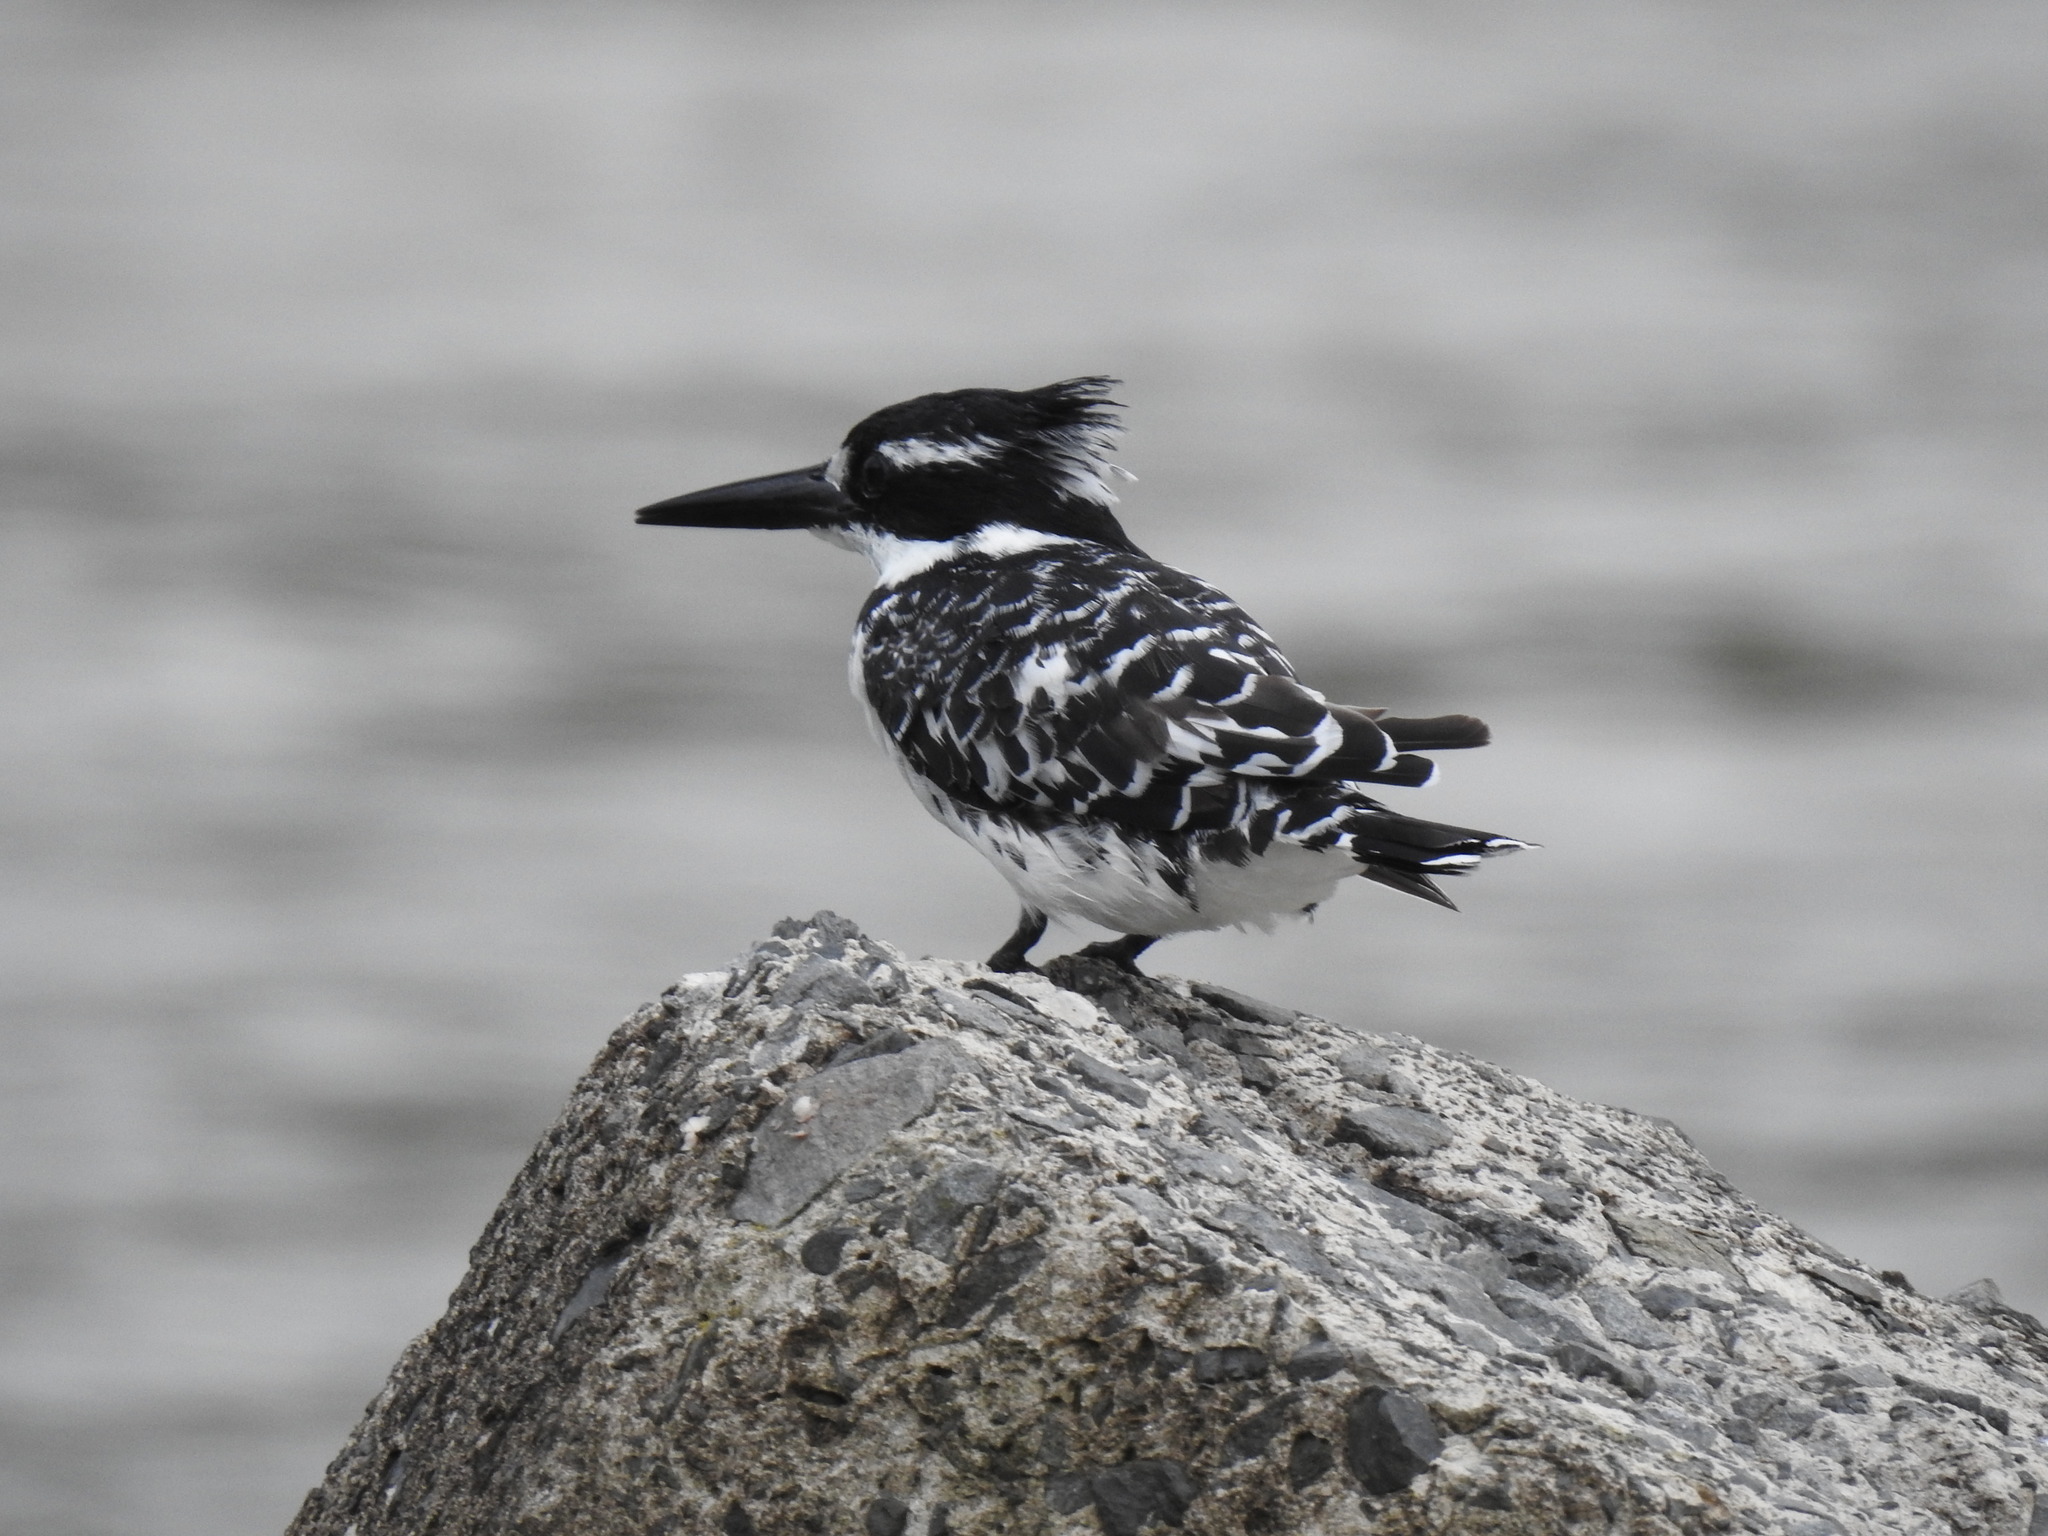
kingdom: Animalia
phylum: Chordata
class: Aves
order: Coraciiformes
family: Alcedinidae
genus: Ceryle
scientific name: Ceryle rudis
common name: Pied kingfisher
